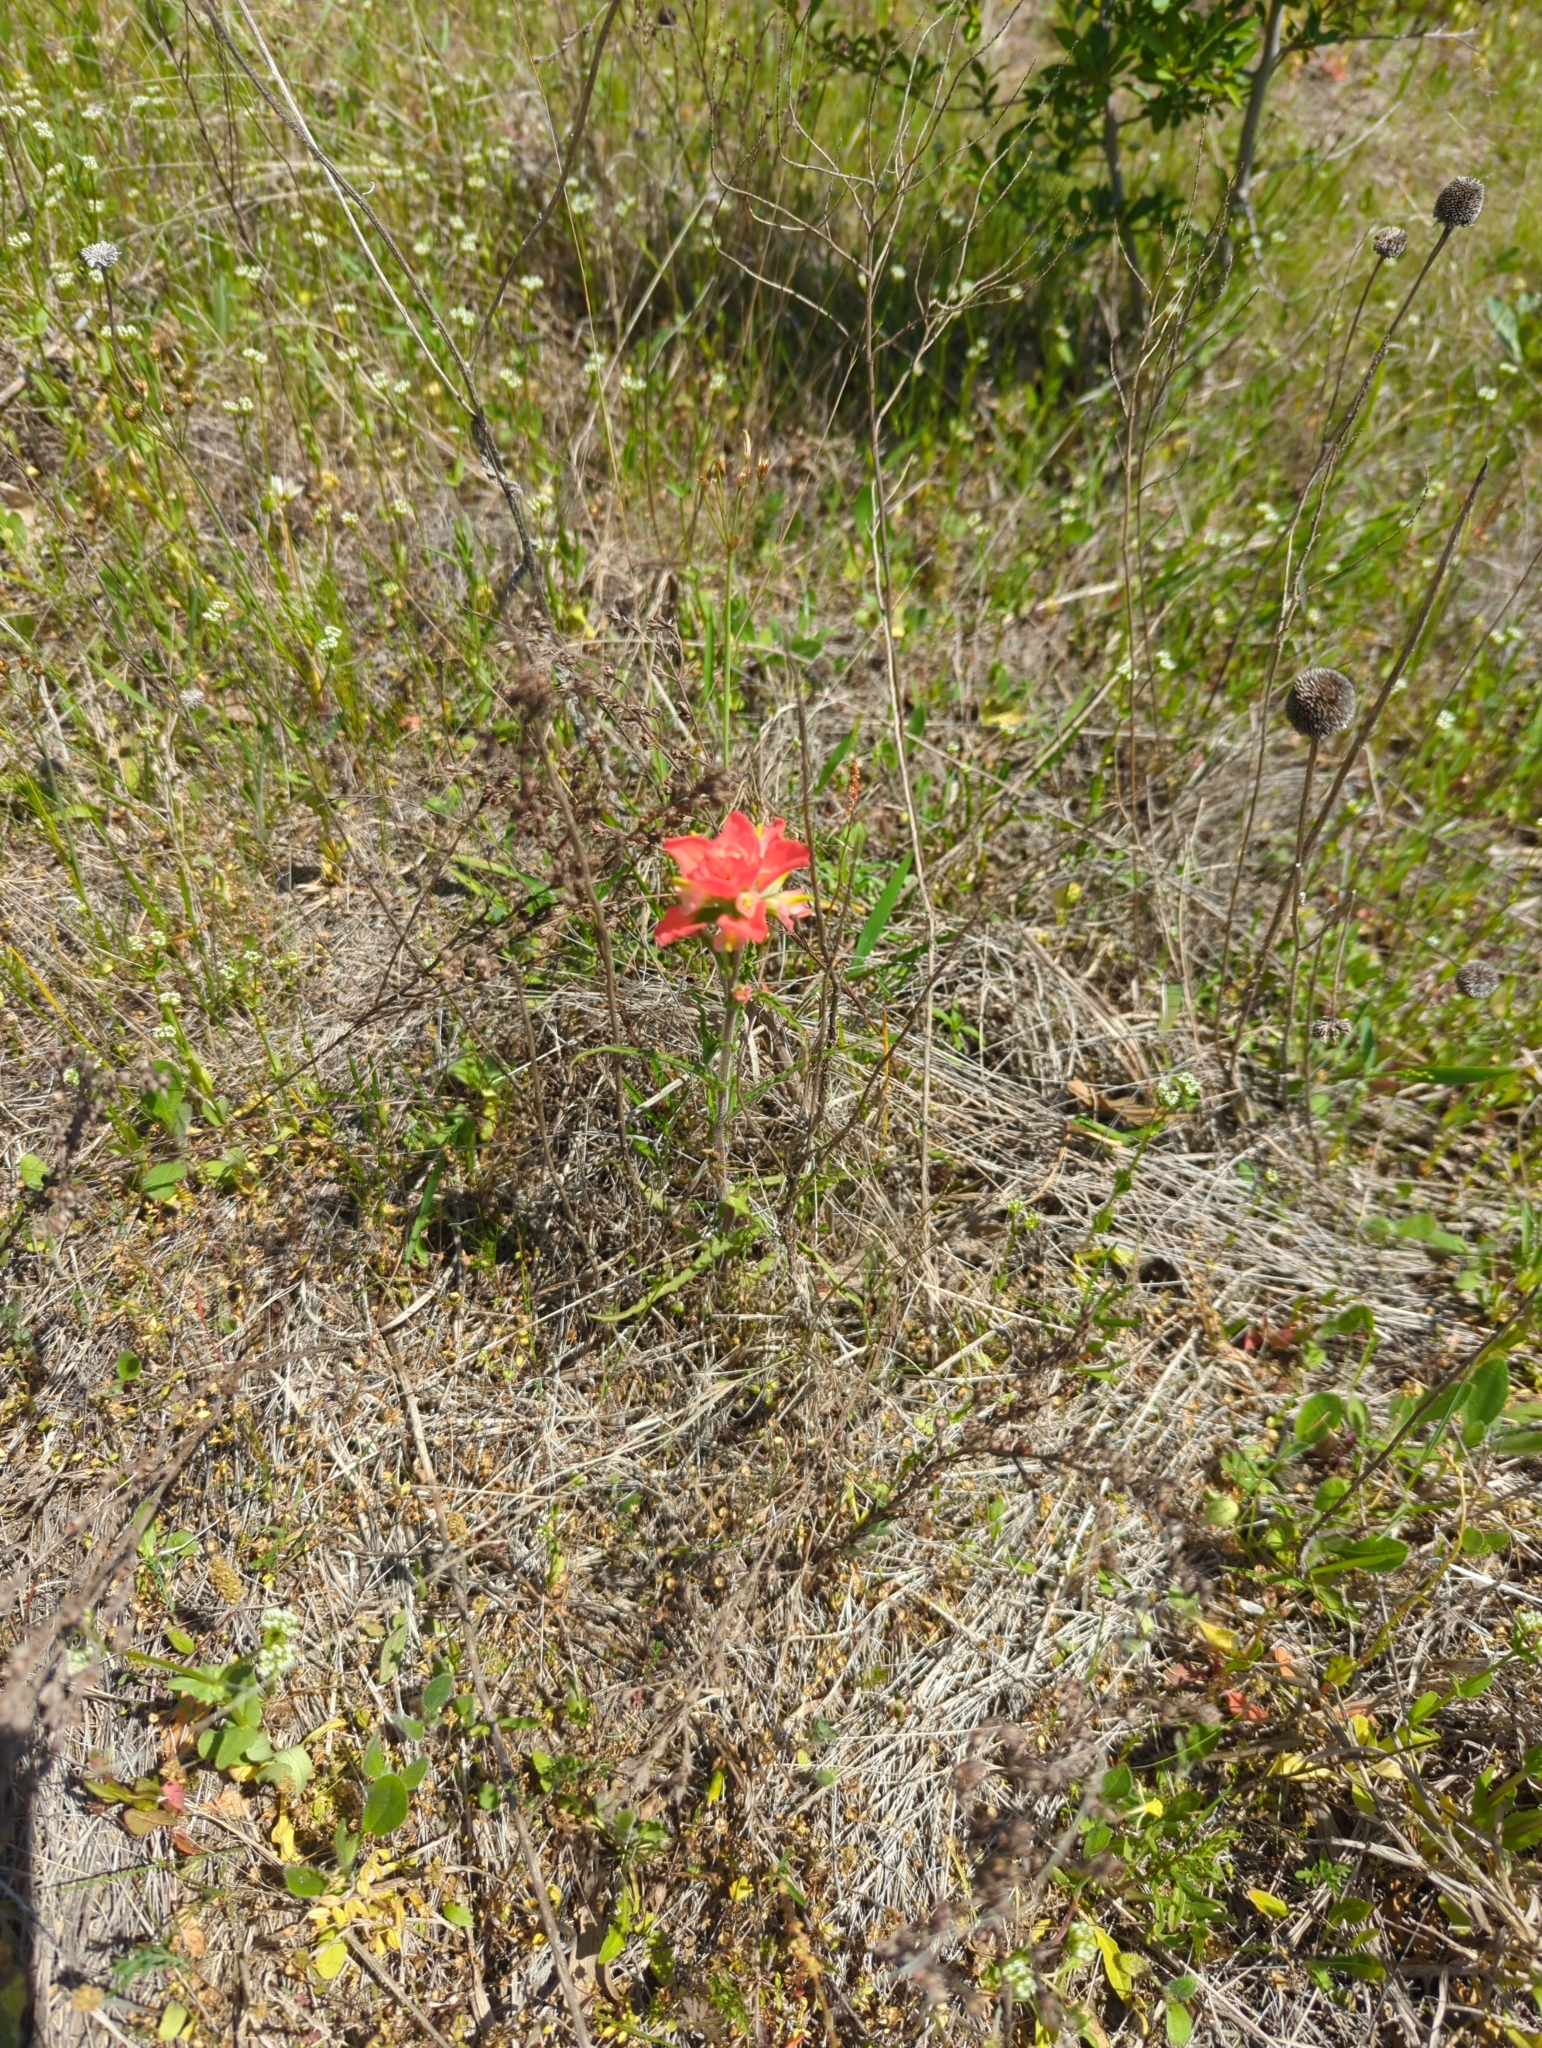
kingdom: Plantae
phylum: Tracheophyta
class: Magnoliopsida
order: Lamiales
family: Orobanchaceae
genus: Castilleja
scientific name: Castilleja indivisa
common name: Texas paintbrush
